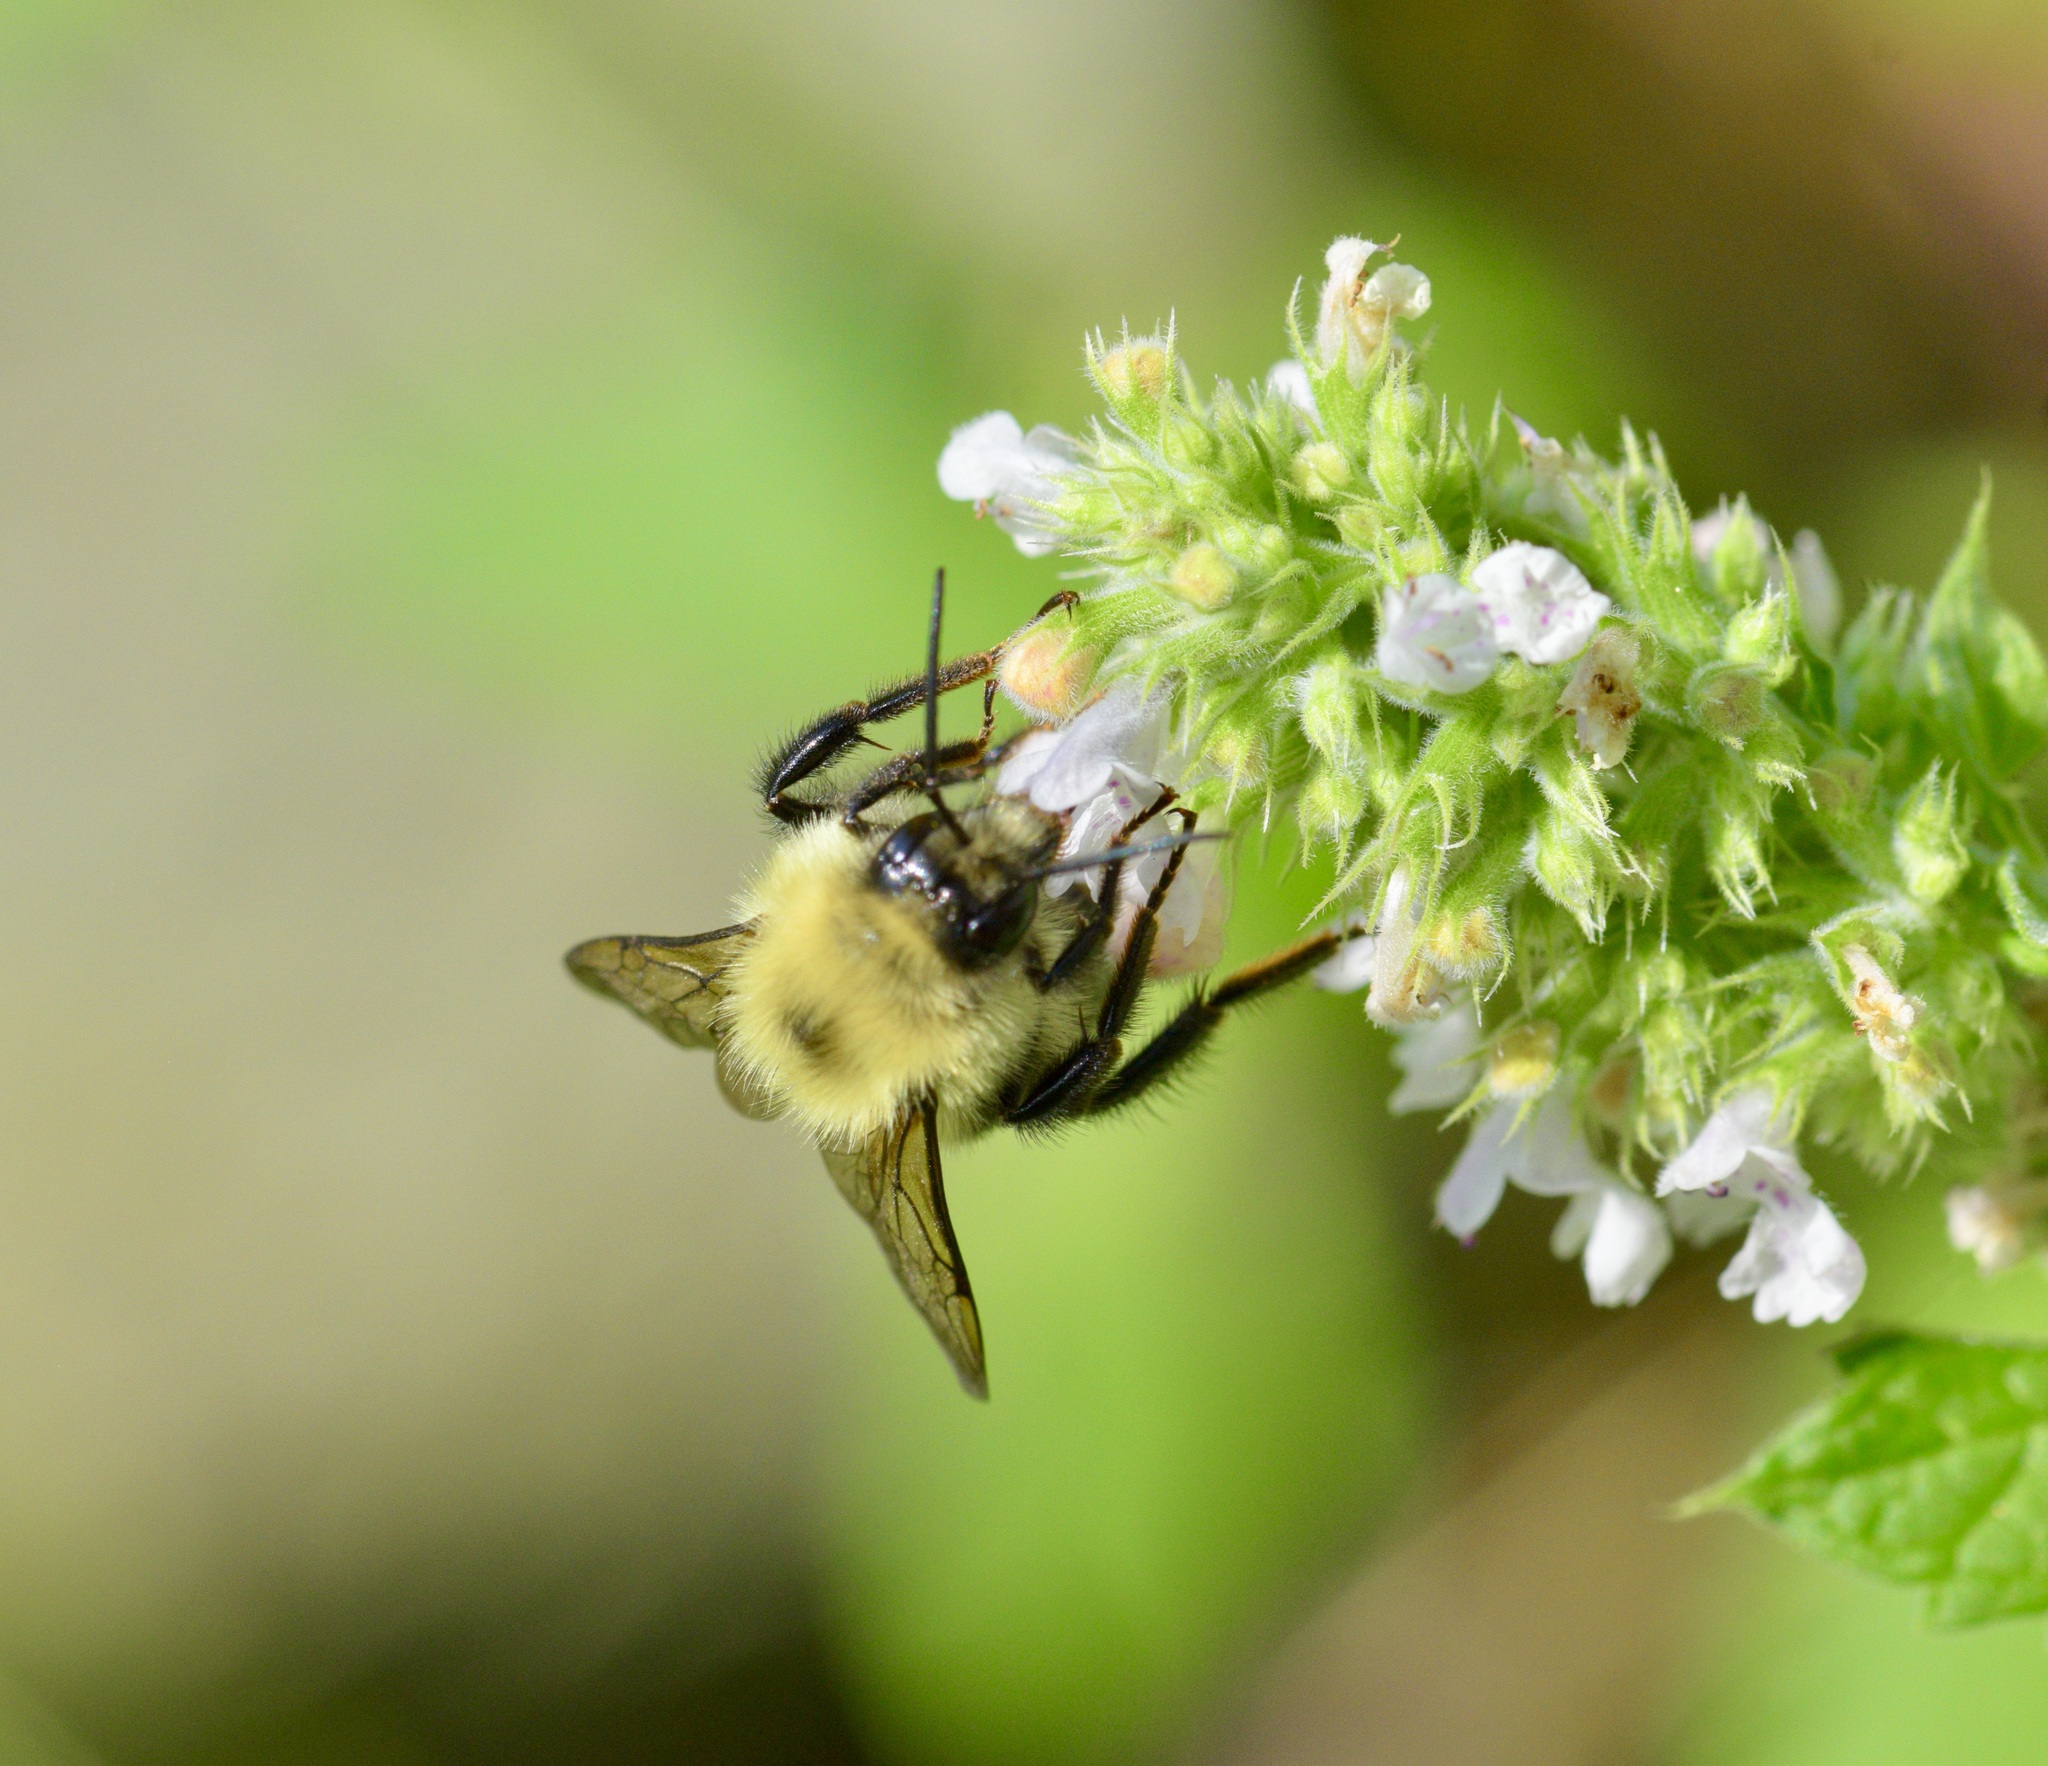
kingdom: Animalia
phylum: Arthropoda
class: Insecta
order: Hymenoptera
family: Apidae
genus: Bombus
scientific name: Bombus bimaculatus
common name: Two-spotted bumble bee
